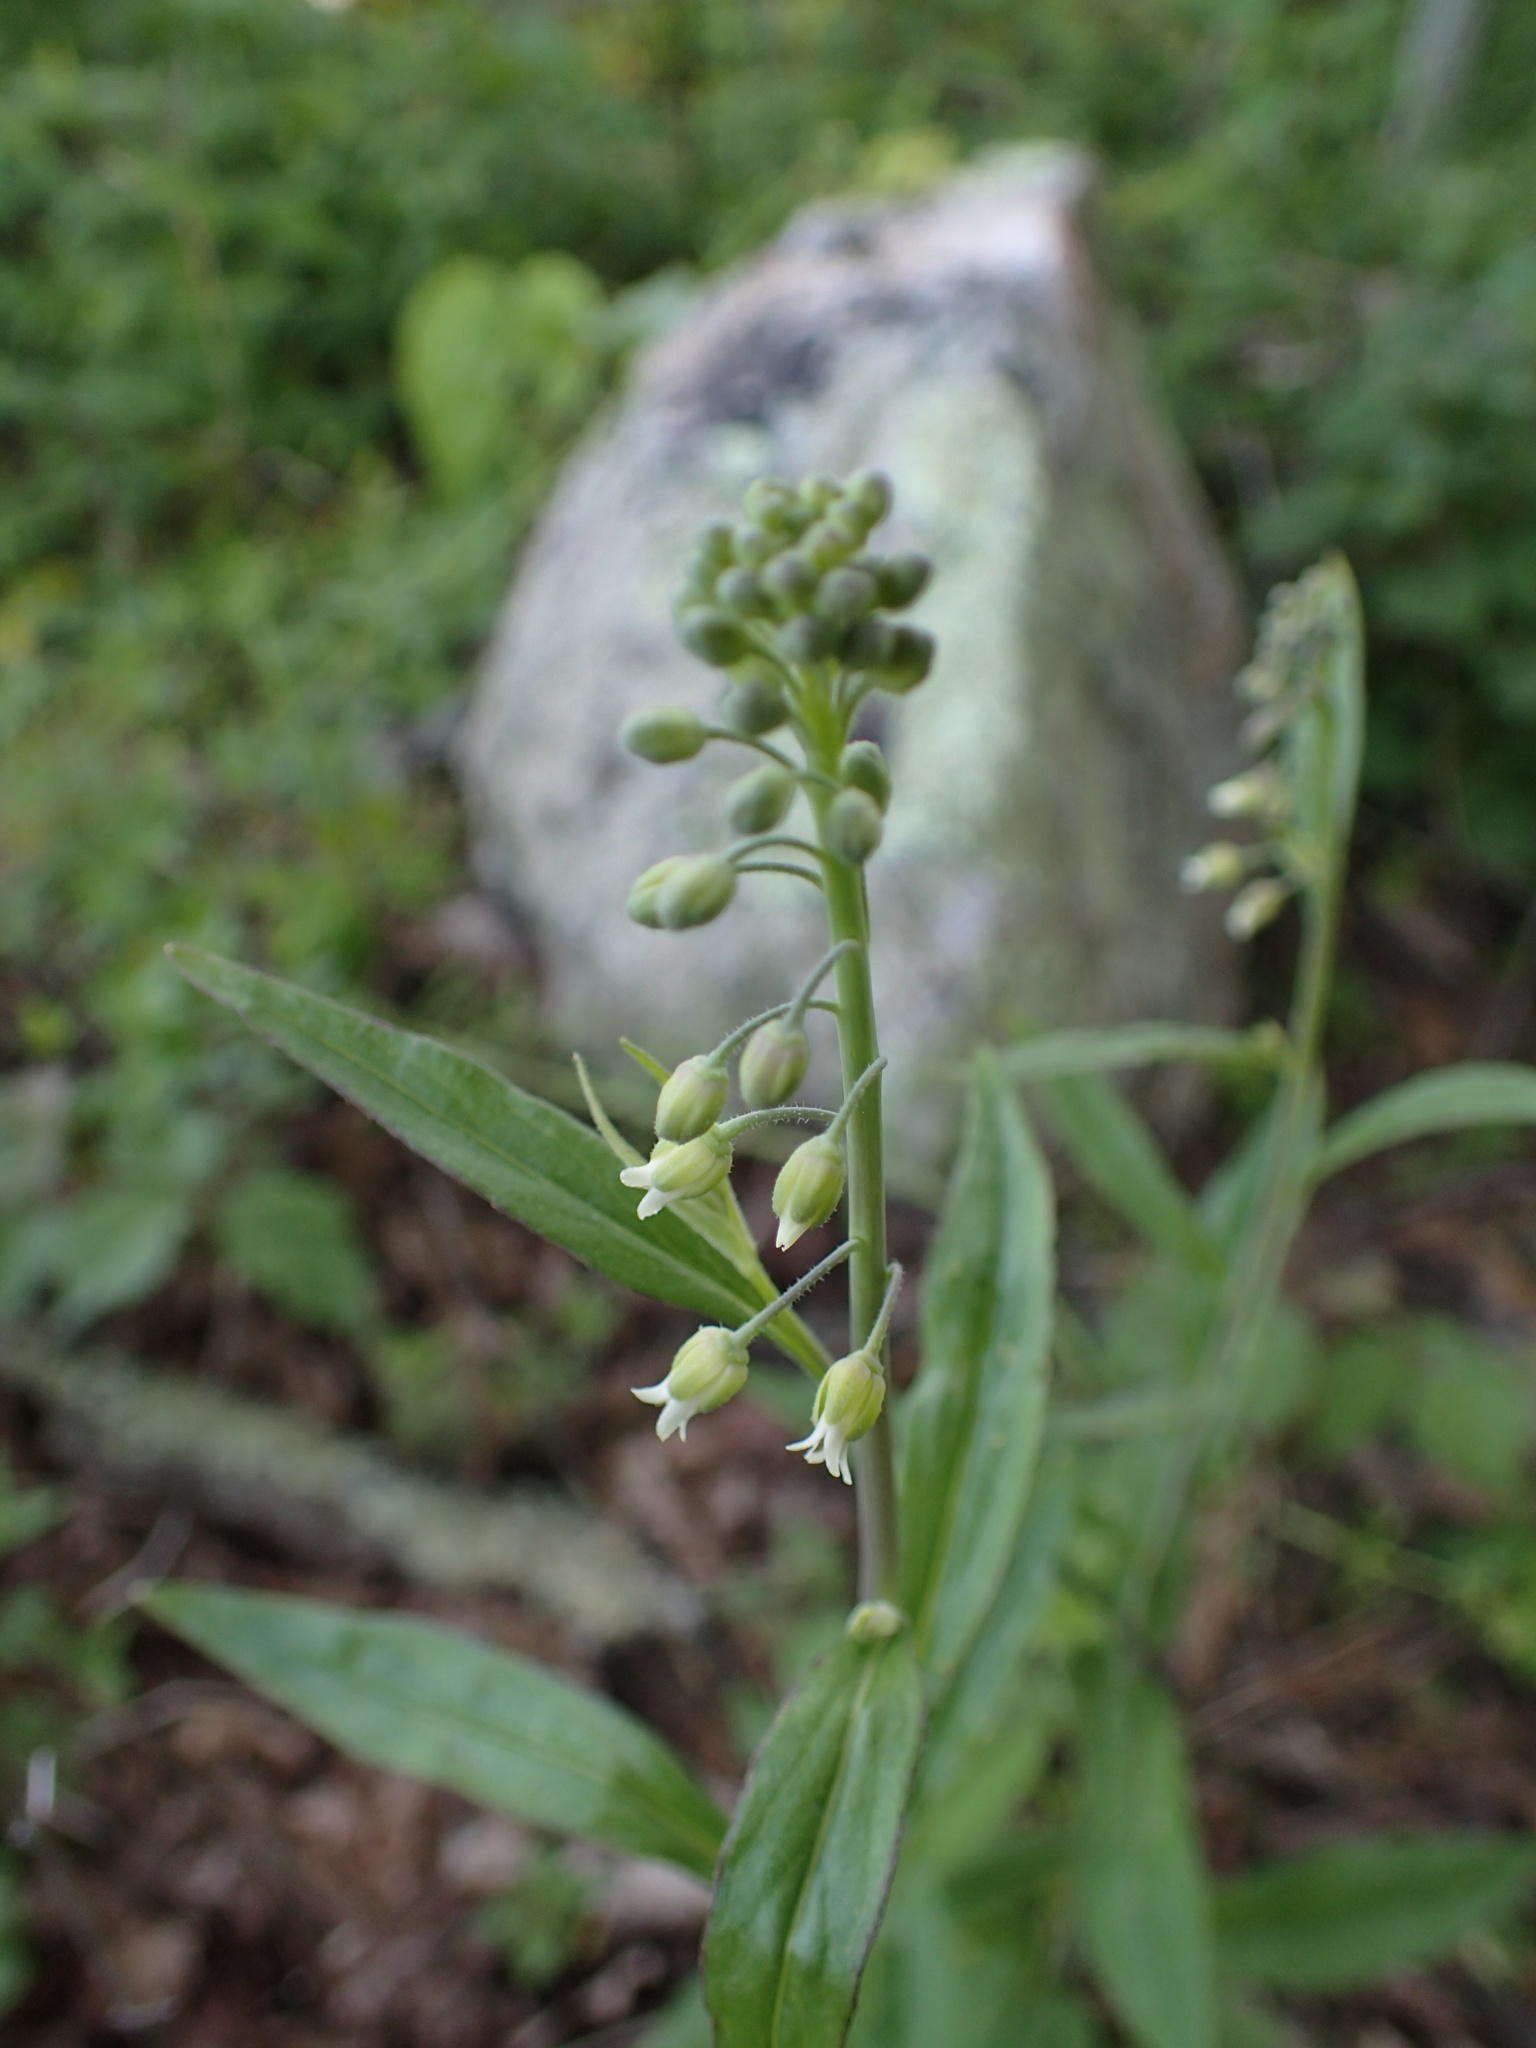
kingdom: Plantae
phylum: Tracheophyta
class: Magnoliopsida
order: Brassicales
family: Brassicaceae
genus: Borodinia
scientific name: Borodinia canadensis
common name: Sicklepod
